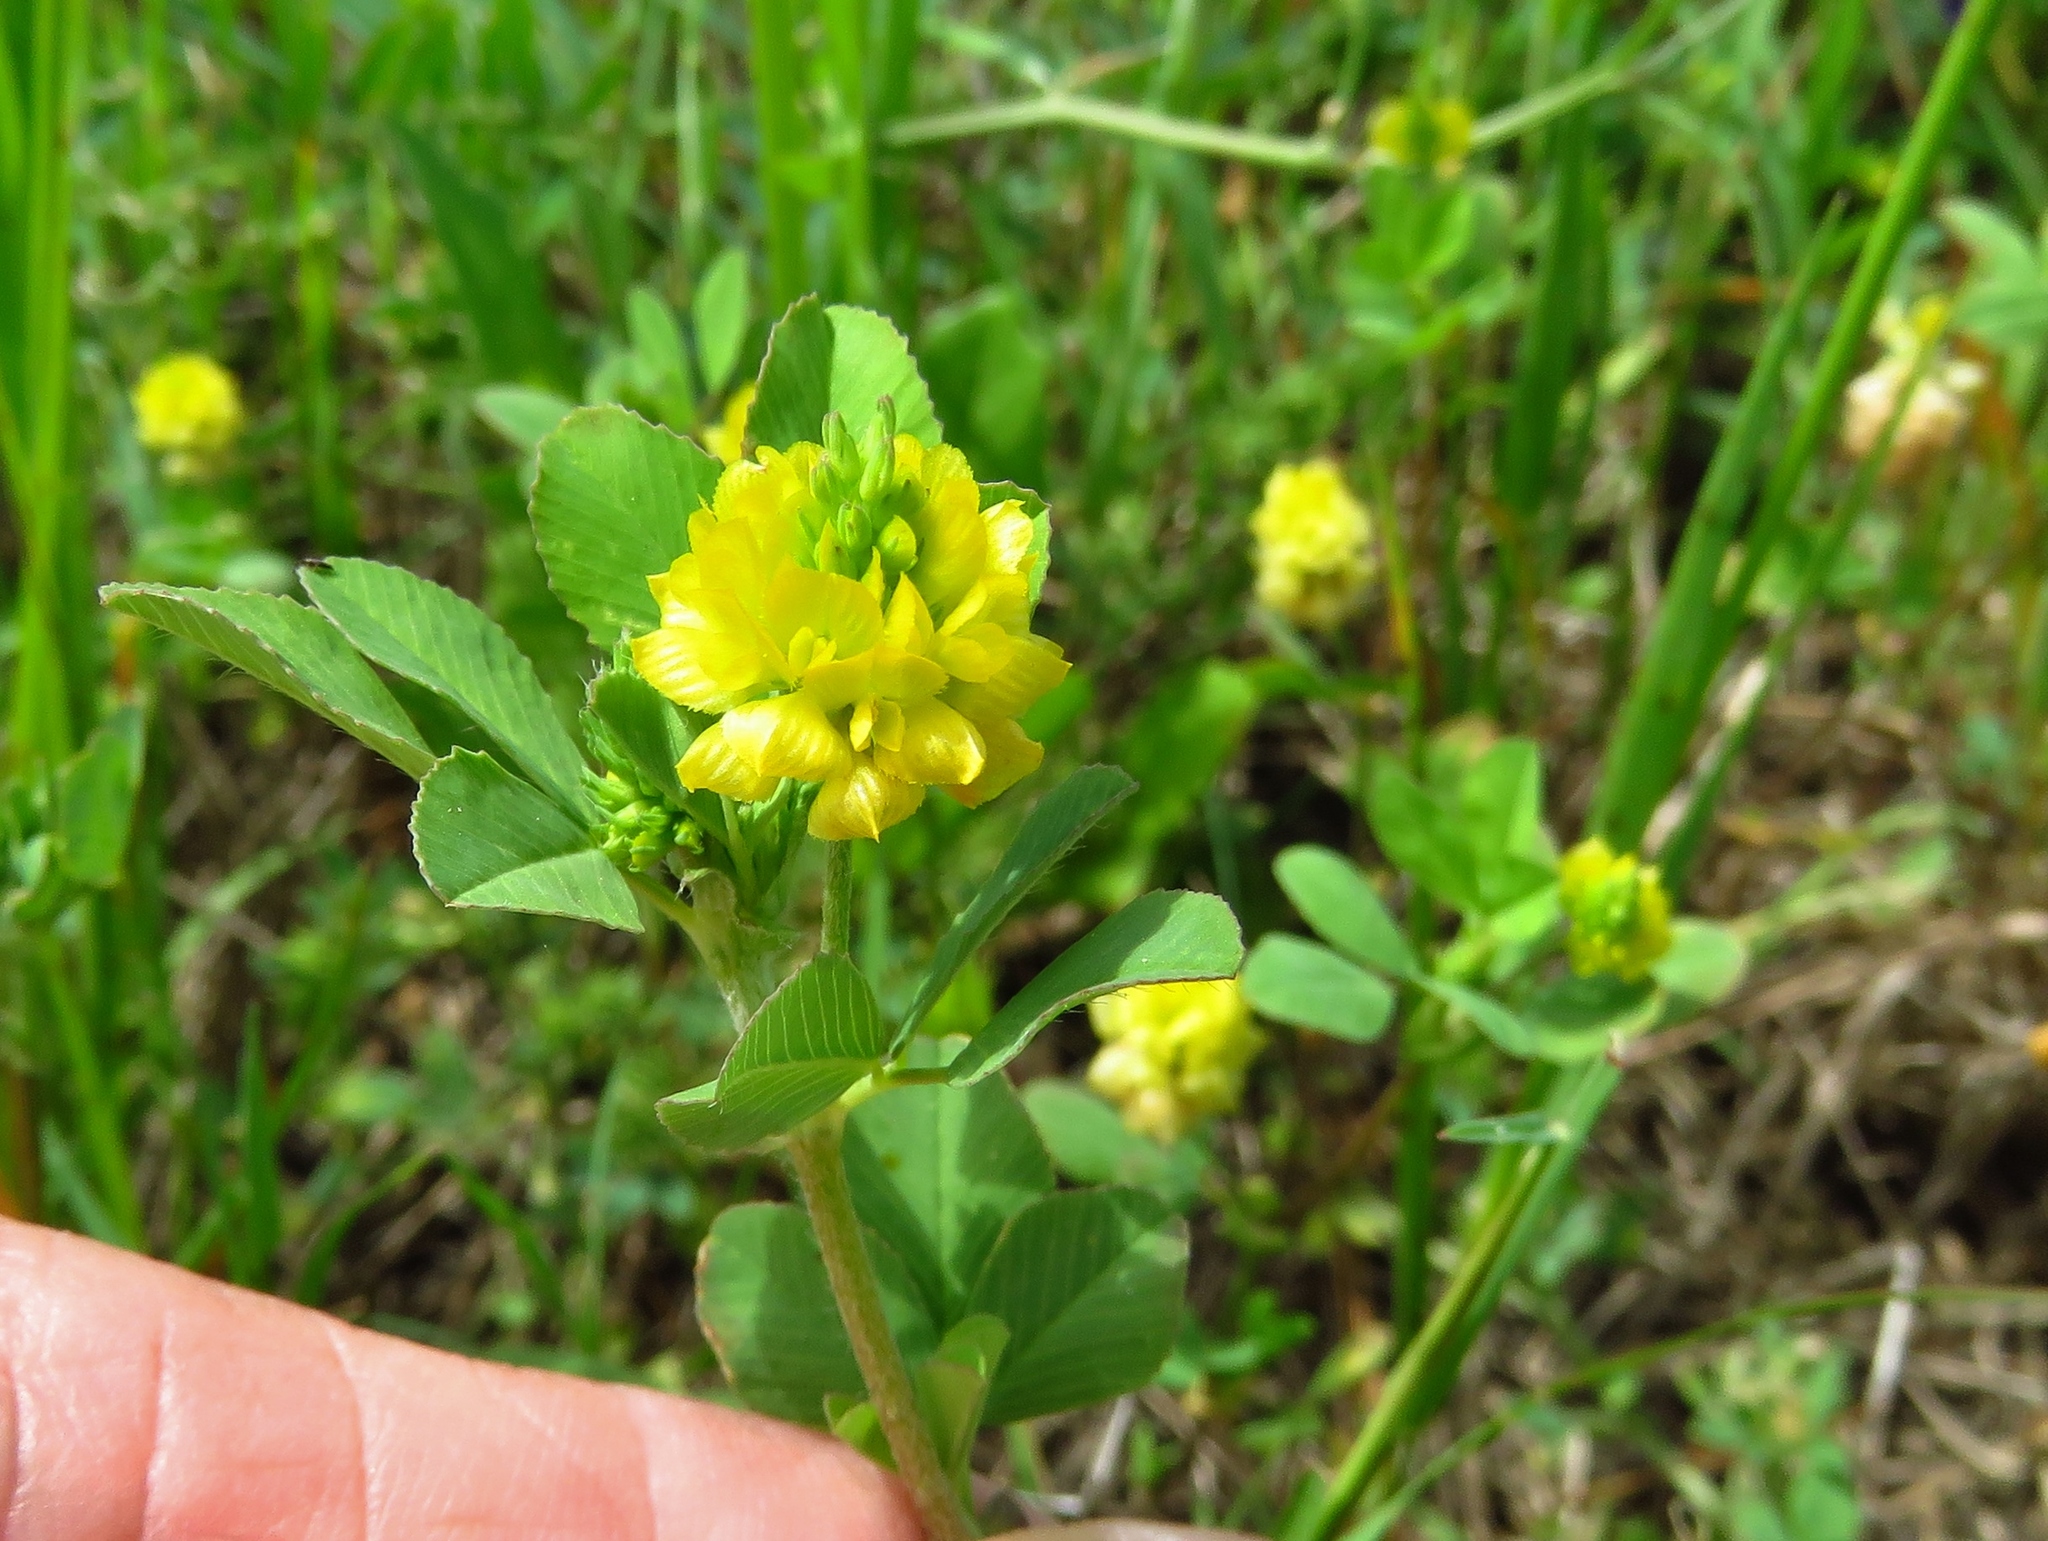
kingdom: Plantae
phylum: Tracheophyta
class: Magnoliopsida
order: Fabales
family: Fabaceae
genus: Trifolium
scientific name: Trifolium campestre
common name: Field clover
